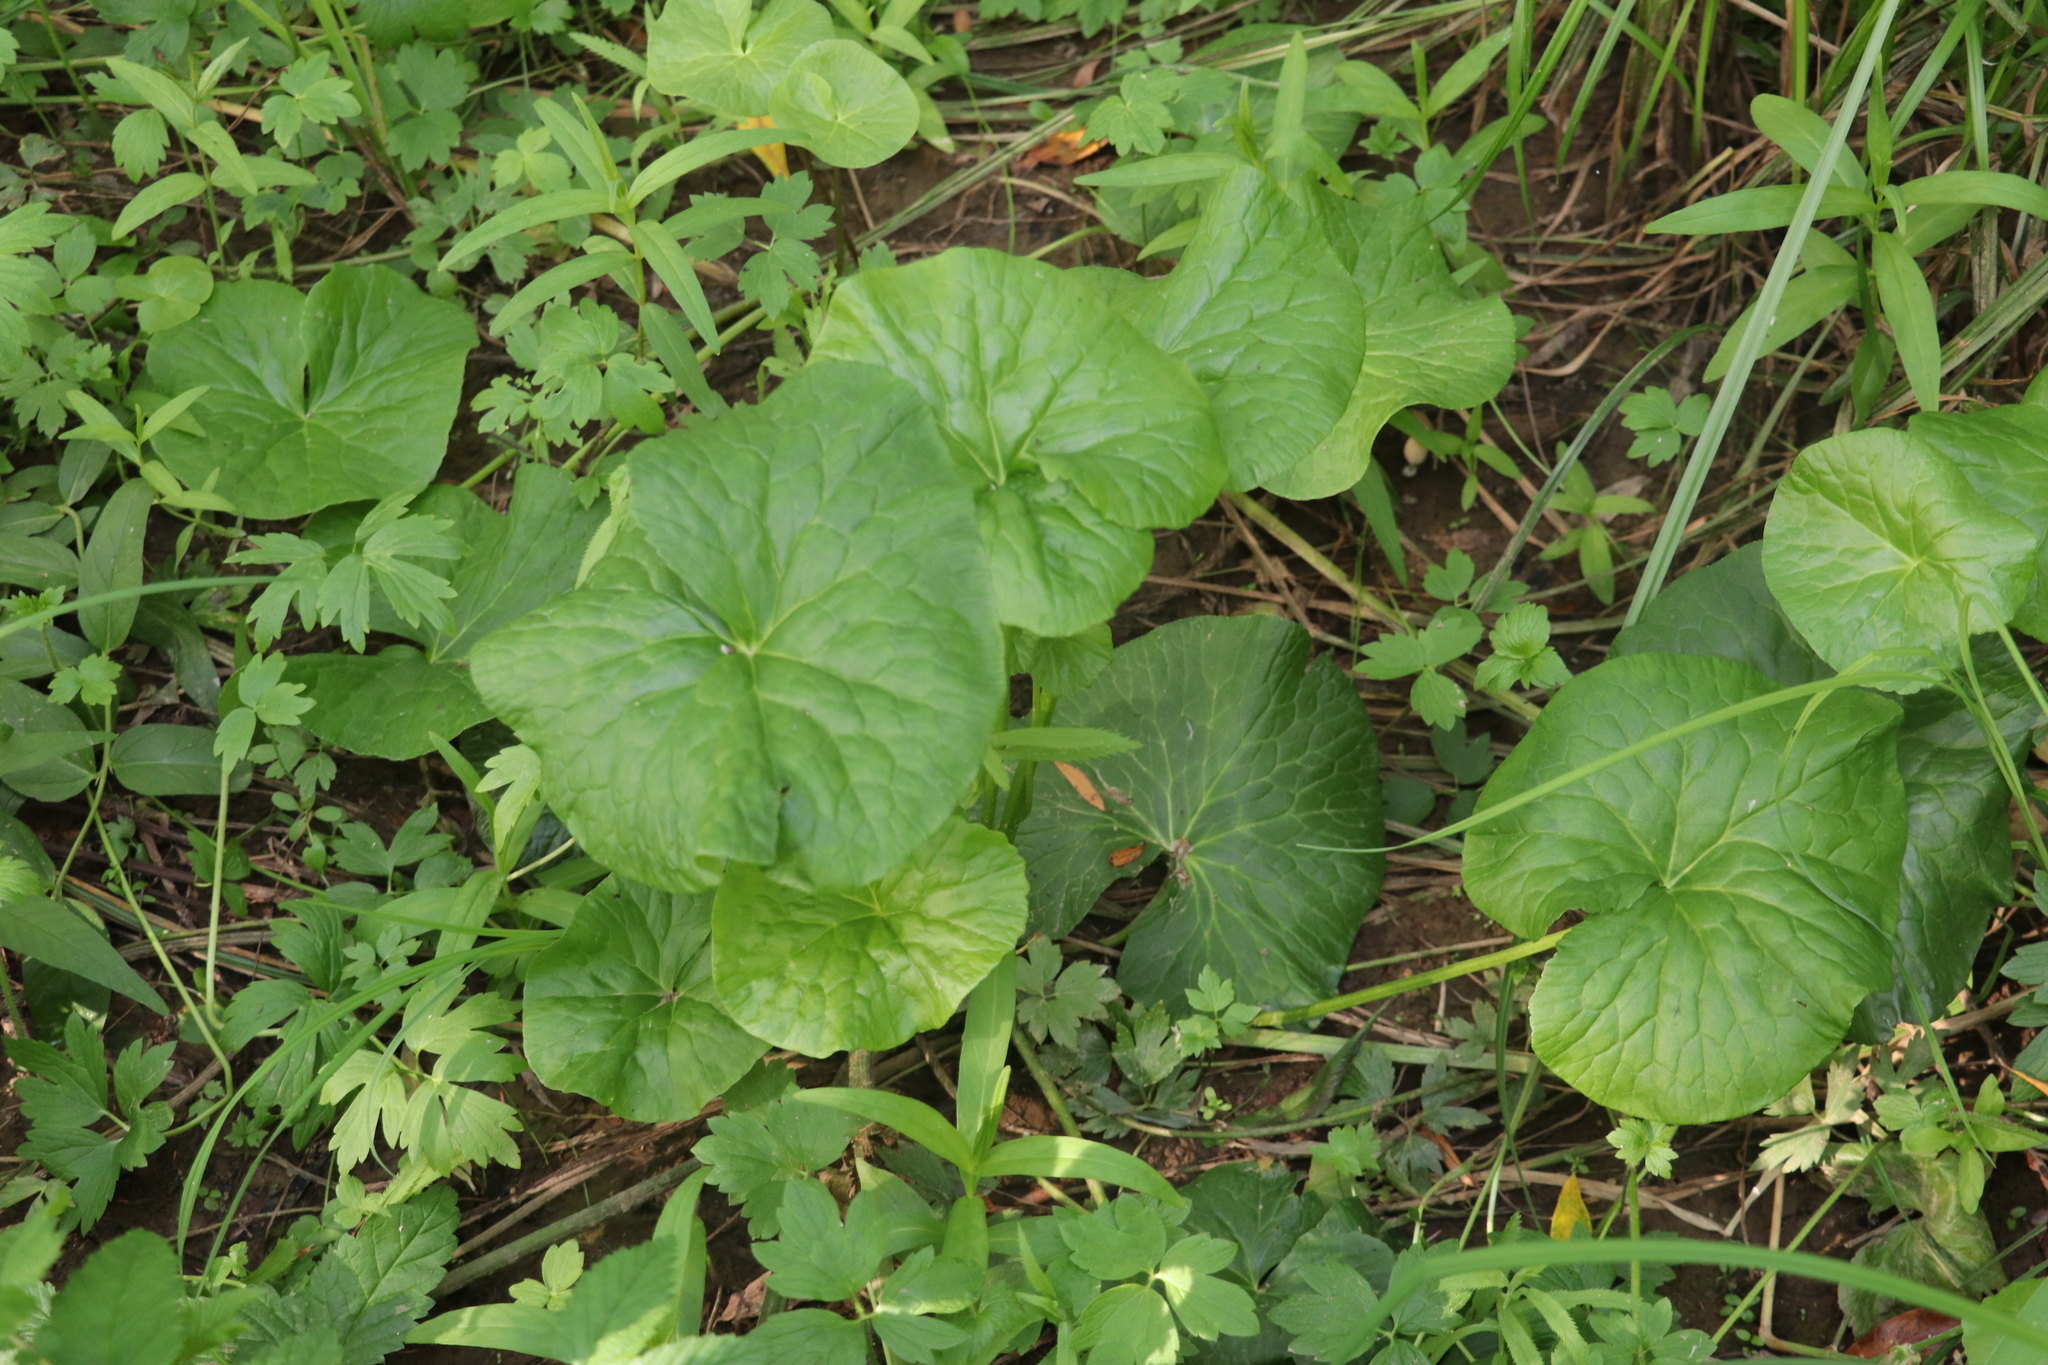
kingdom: Plantae
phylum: Tracheophyta
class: Magnoliopsida
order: Ranunculales
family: Ranunculaceae
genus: Caltha
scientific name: Caltha palustris
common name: Marsh marigold
